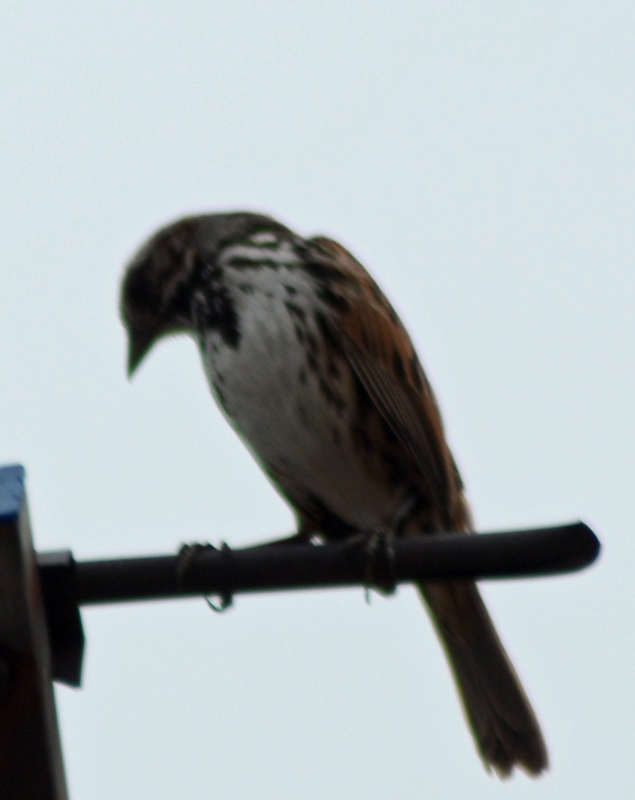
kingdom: Animalia
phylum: Chordata
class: Aves
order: Passeriformes
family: Passerellidae
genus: Melospiza
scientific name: Melospiza melodia
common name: Song sparrow
